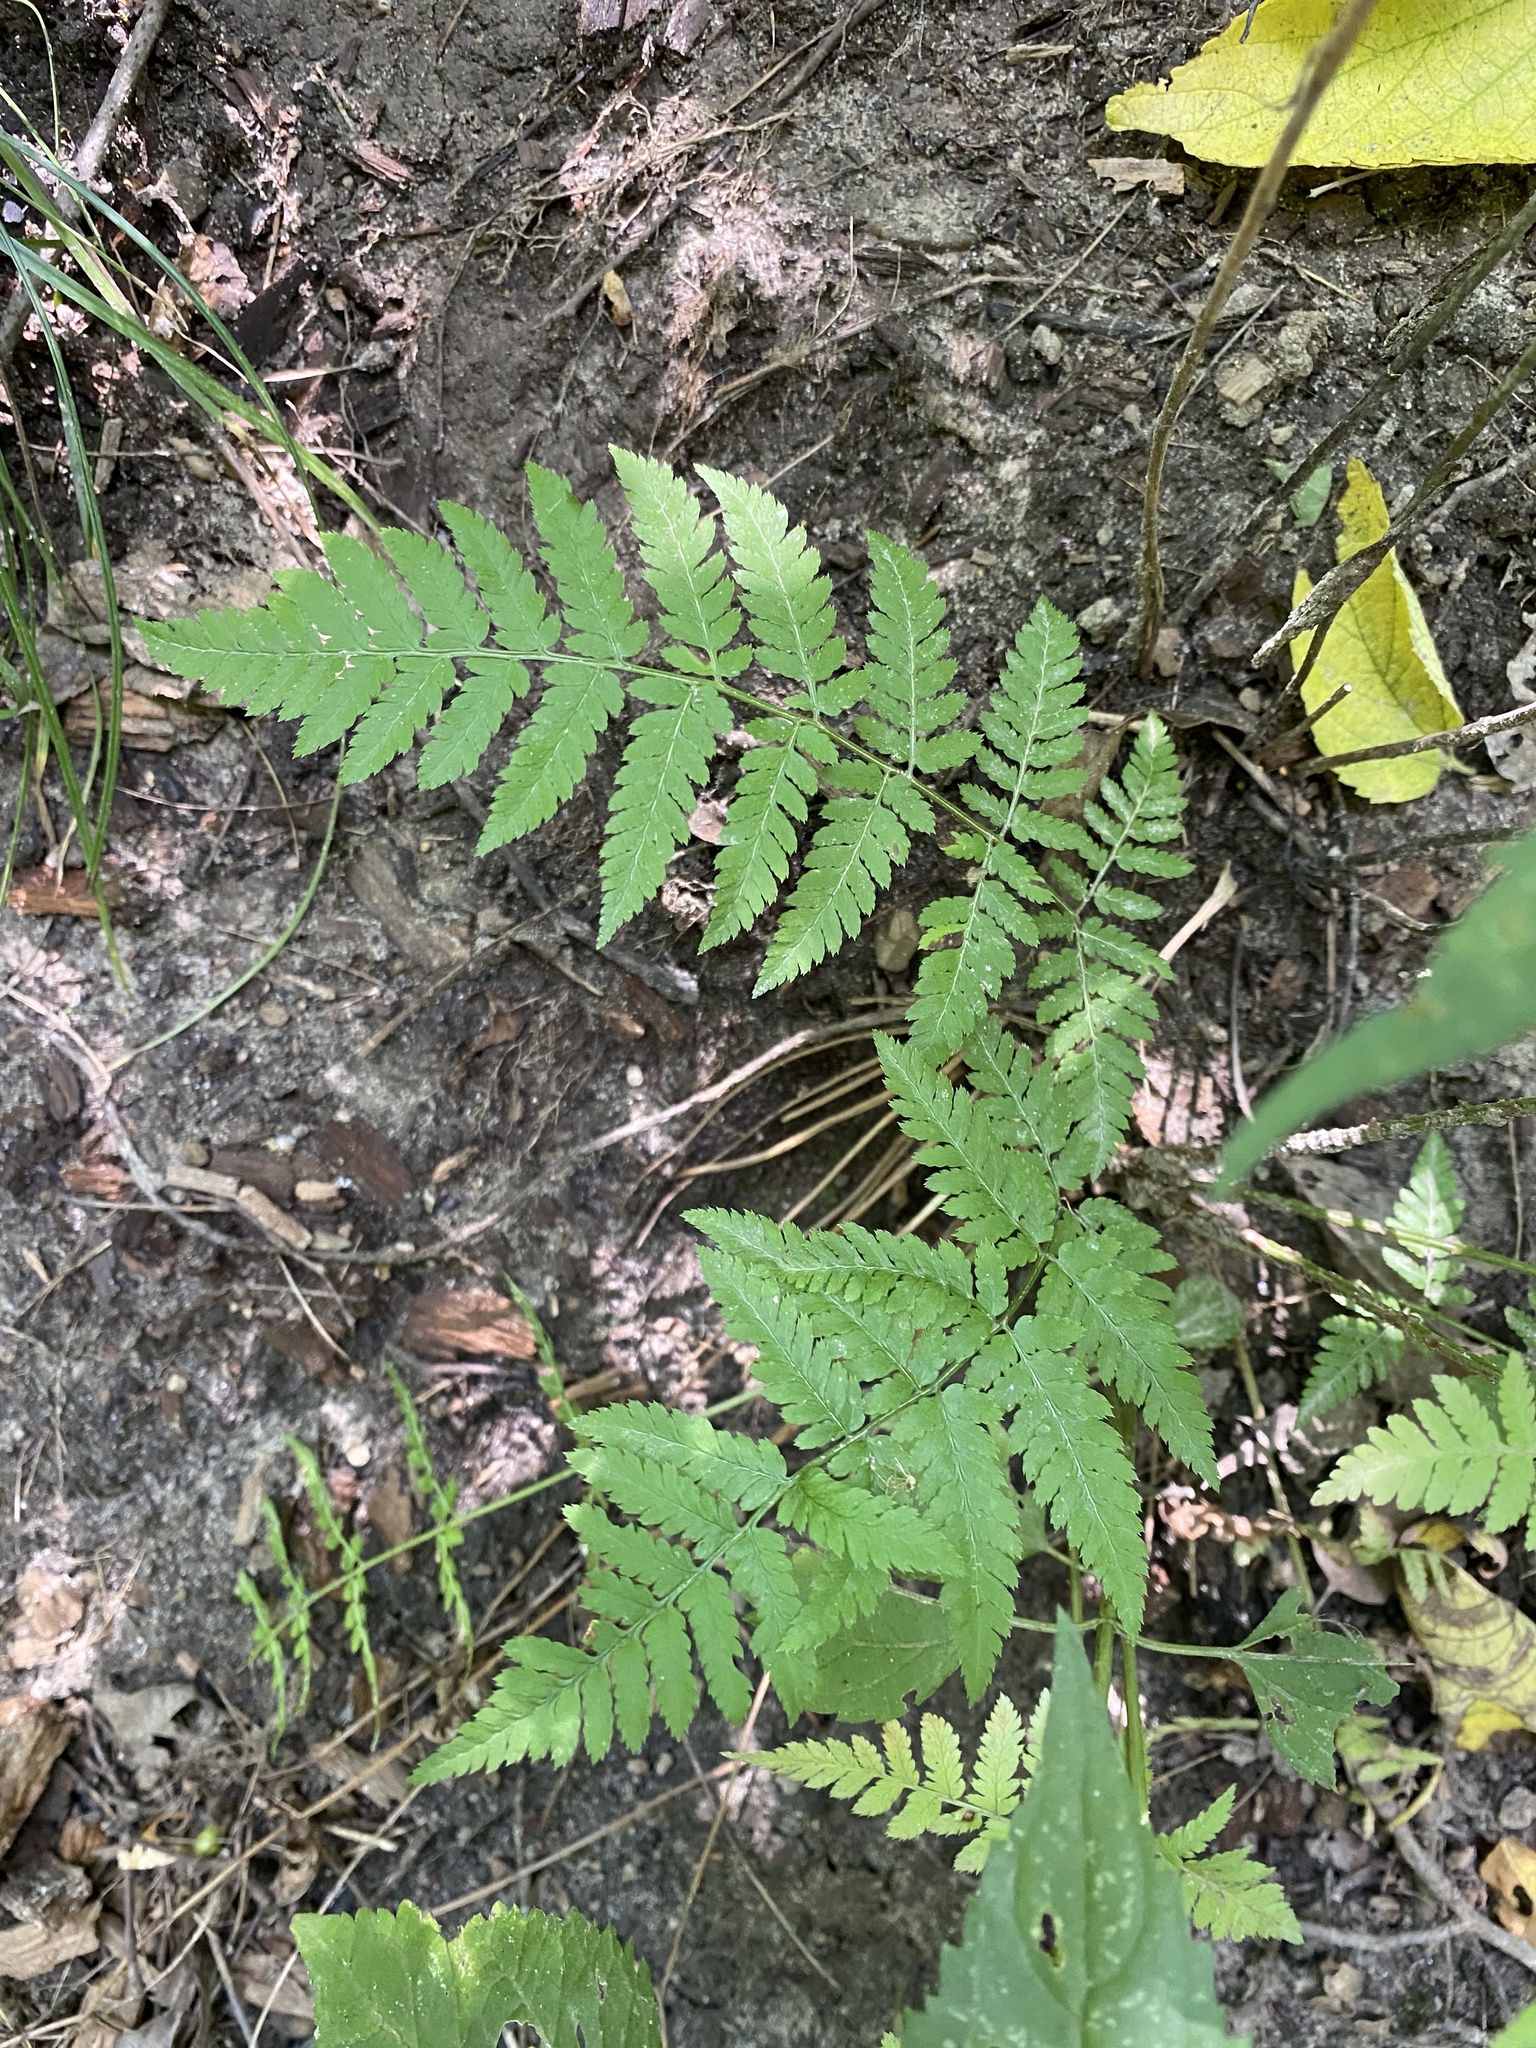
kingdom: Plantae
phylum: Tracheophyta
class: Polypodiopsida
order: Polypodiales
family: Dryopteridaceae
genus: Dryopteris
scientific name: Dryopteris carthusiana
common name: Narrow buckler-fern
